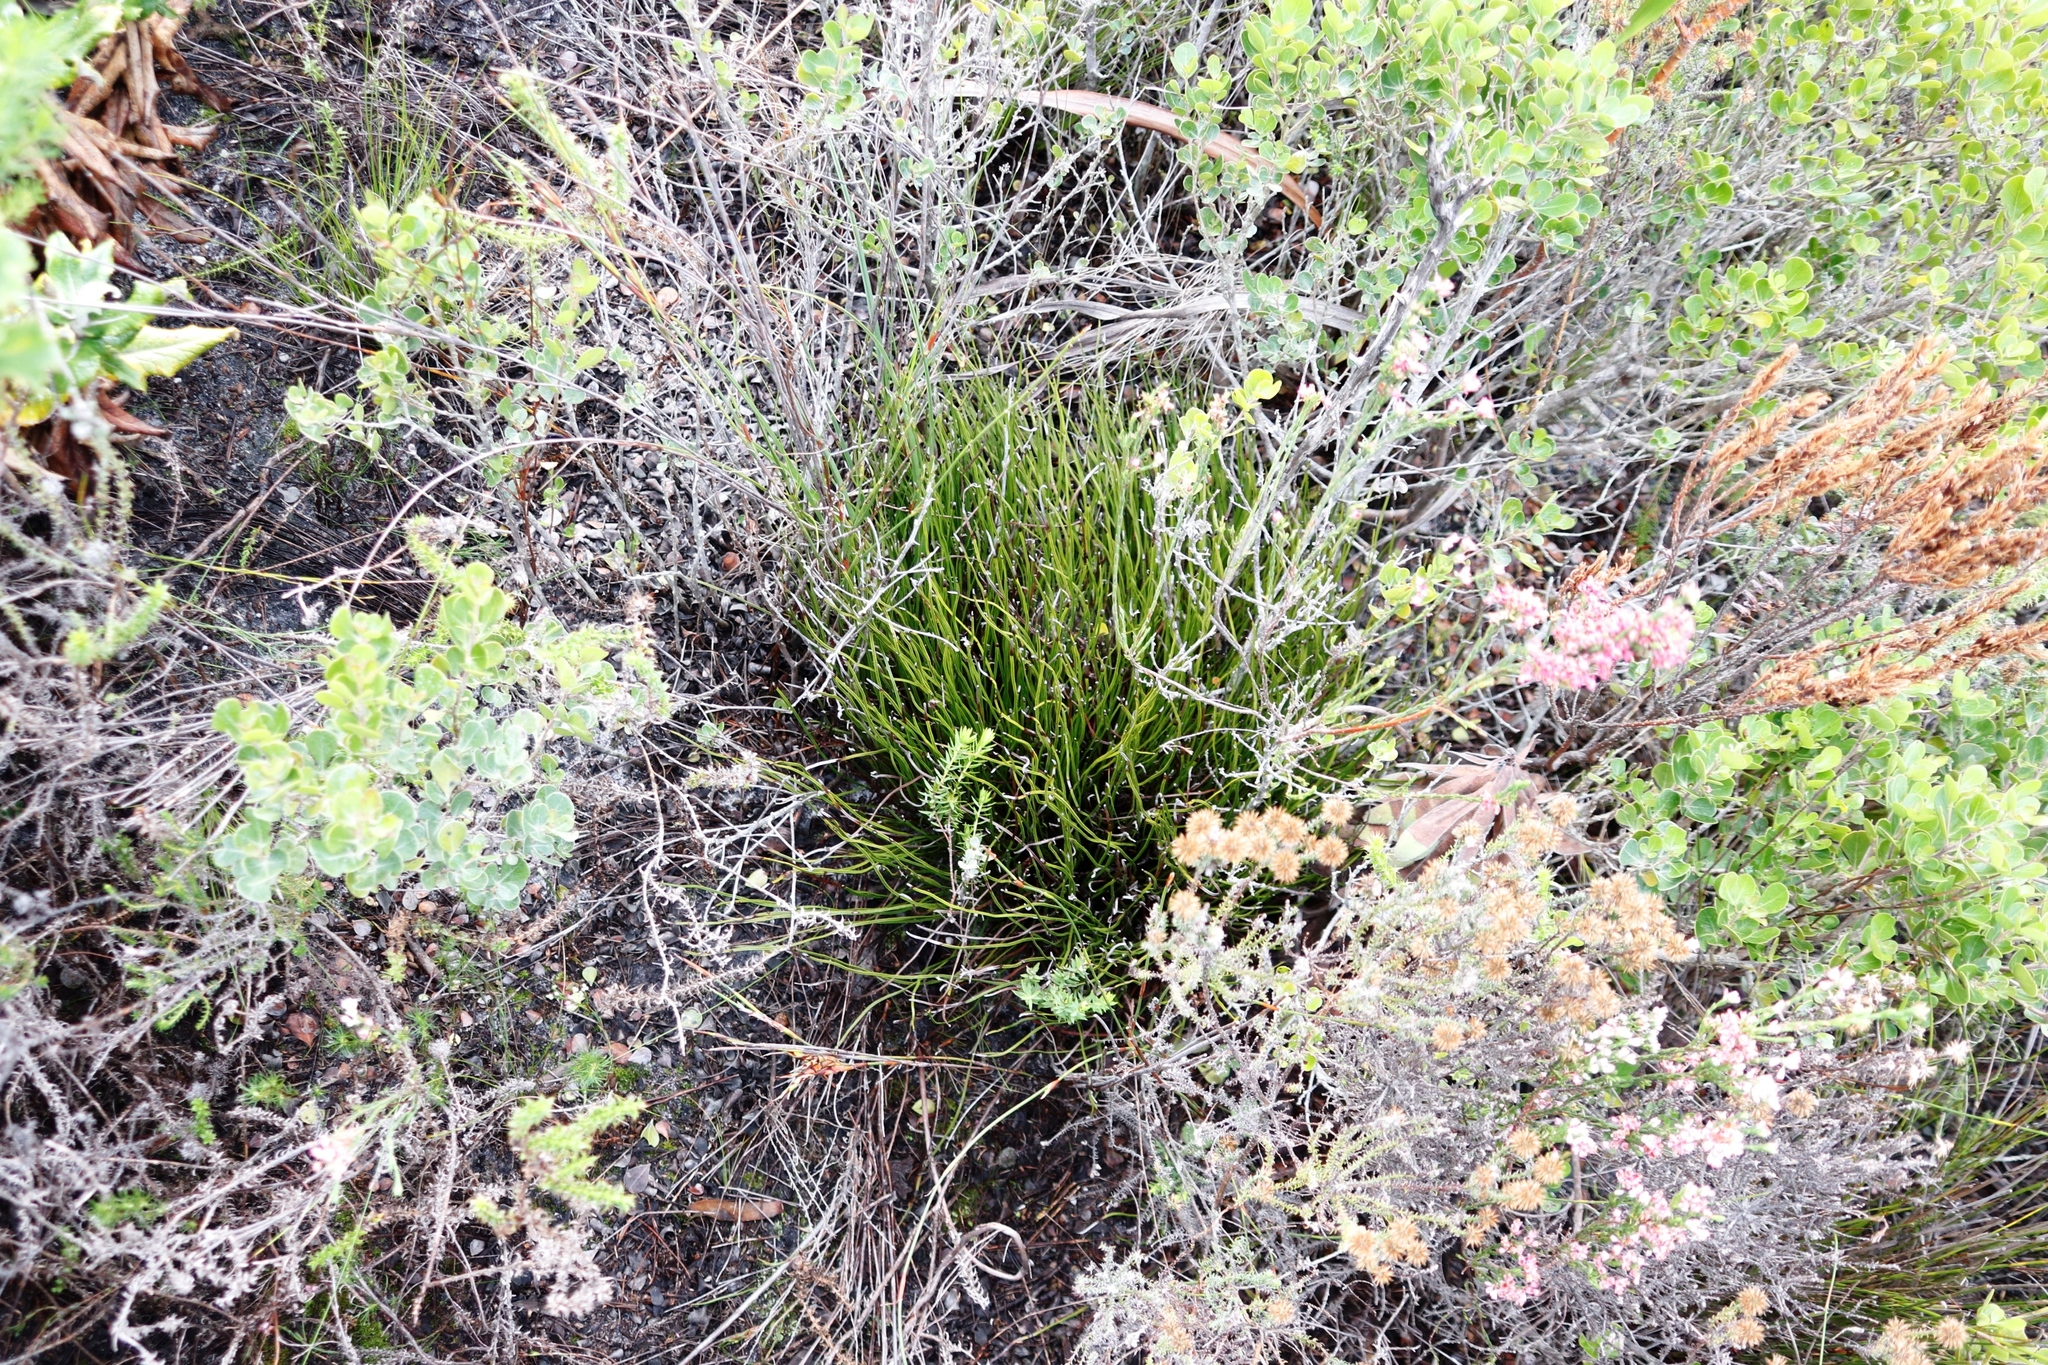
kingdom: Plantae
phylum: Tracheophyta
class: Polypodiopsida
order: Schizaeales
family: Schizaeaceae
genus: Schizaea
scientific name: Schizaea pectinata
